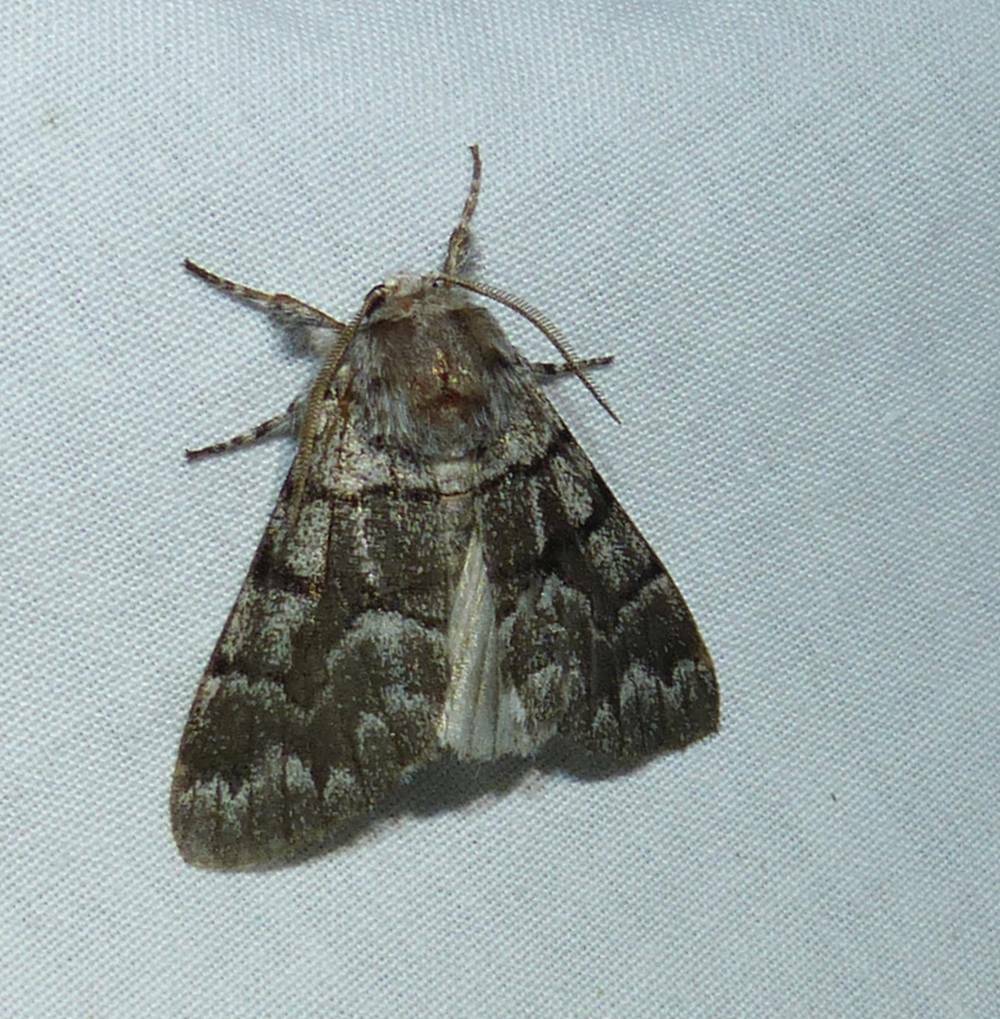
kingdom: Animalia
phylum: Arthropoda
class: Insecta
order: Lepidoptera
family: Noctuidae
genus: Panthea
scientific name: Panthea furcilla
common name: Eastern panthea moth
